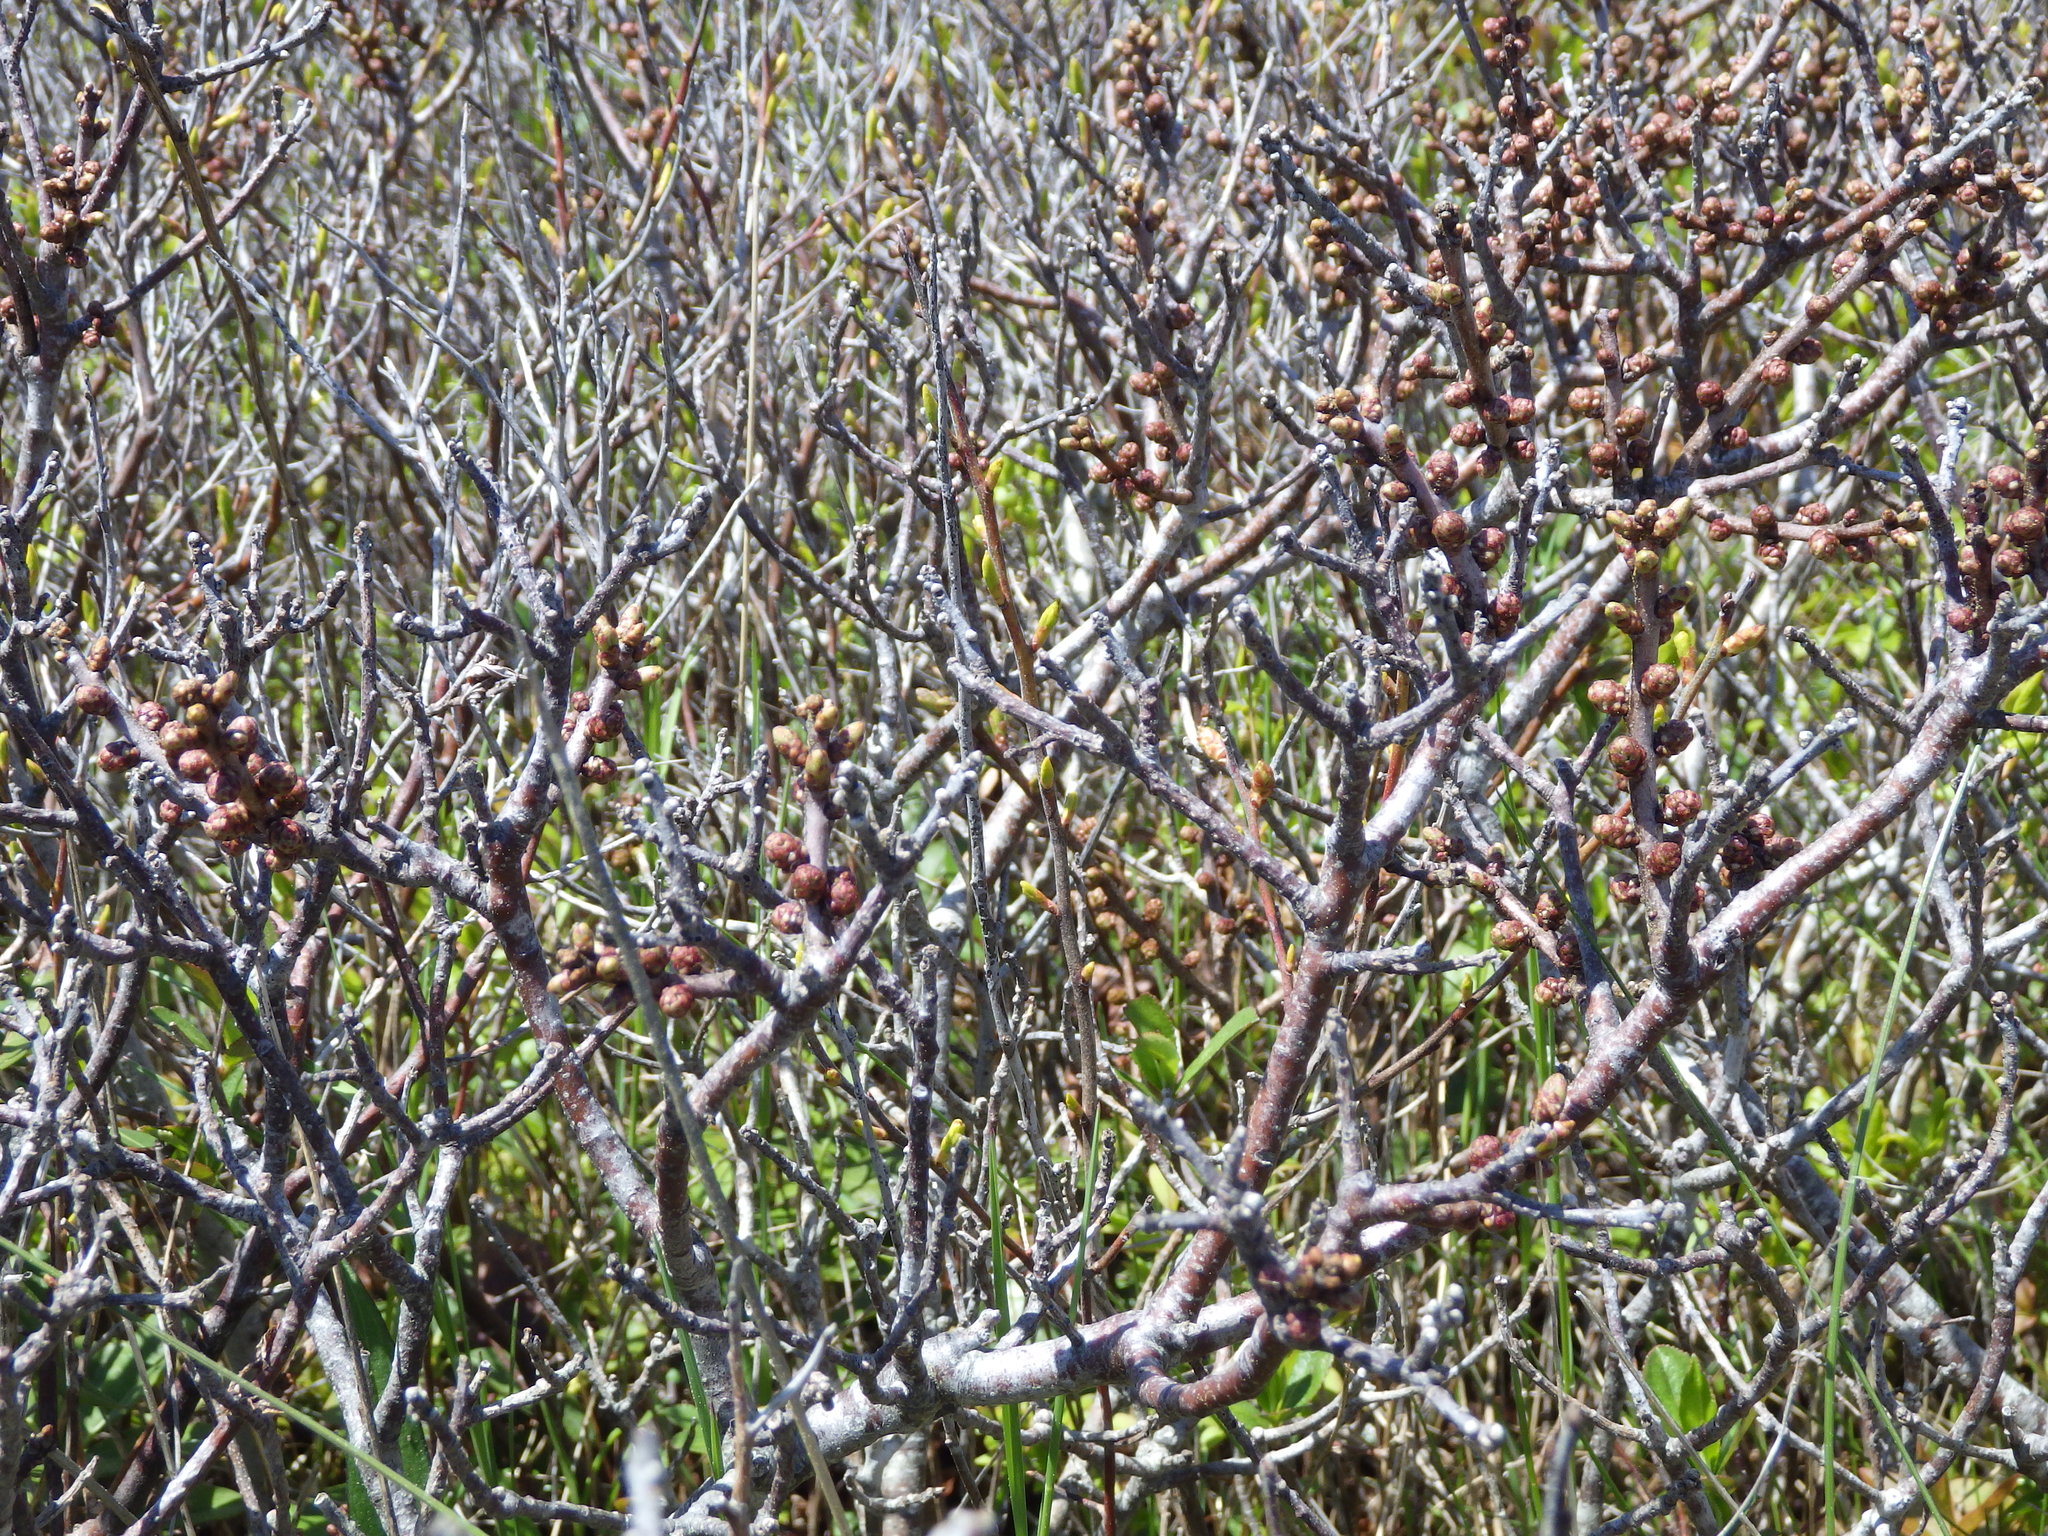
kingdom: Plantae
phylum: Tracheophyta
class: Magnoliopsida
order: Fagales
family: Myricaceae
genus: Morella
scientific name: Morella pensylvanica
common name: Northern bayberry
